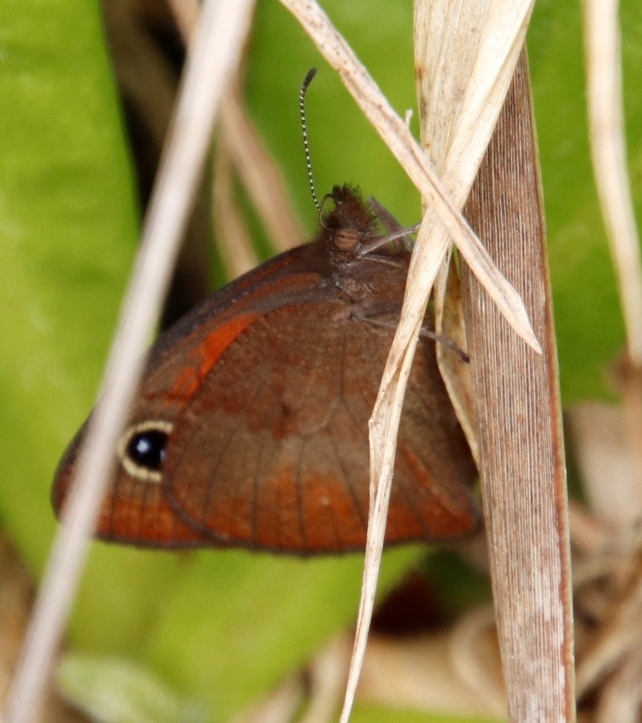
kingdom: Animalia
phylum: Arthropoda
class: Insecta
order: Lepidoptera
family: Nymphalidae
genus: Pseudonympha
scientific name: Pseudonympha detecta
